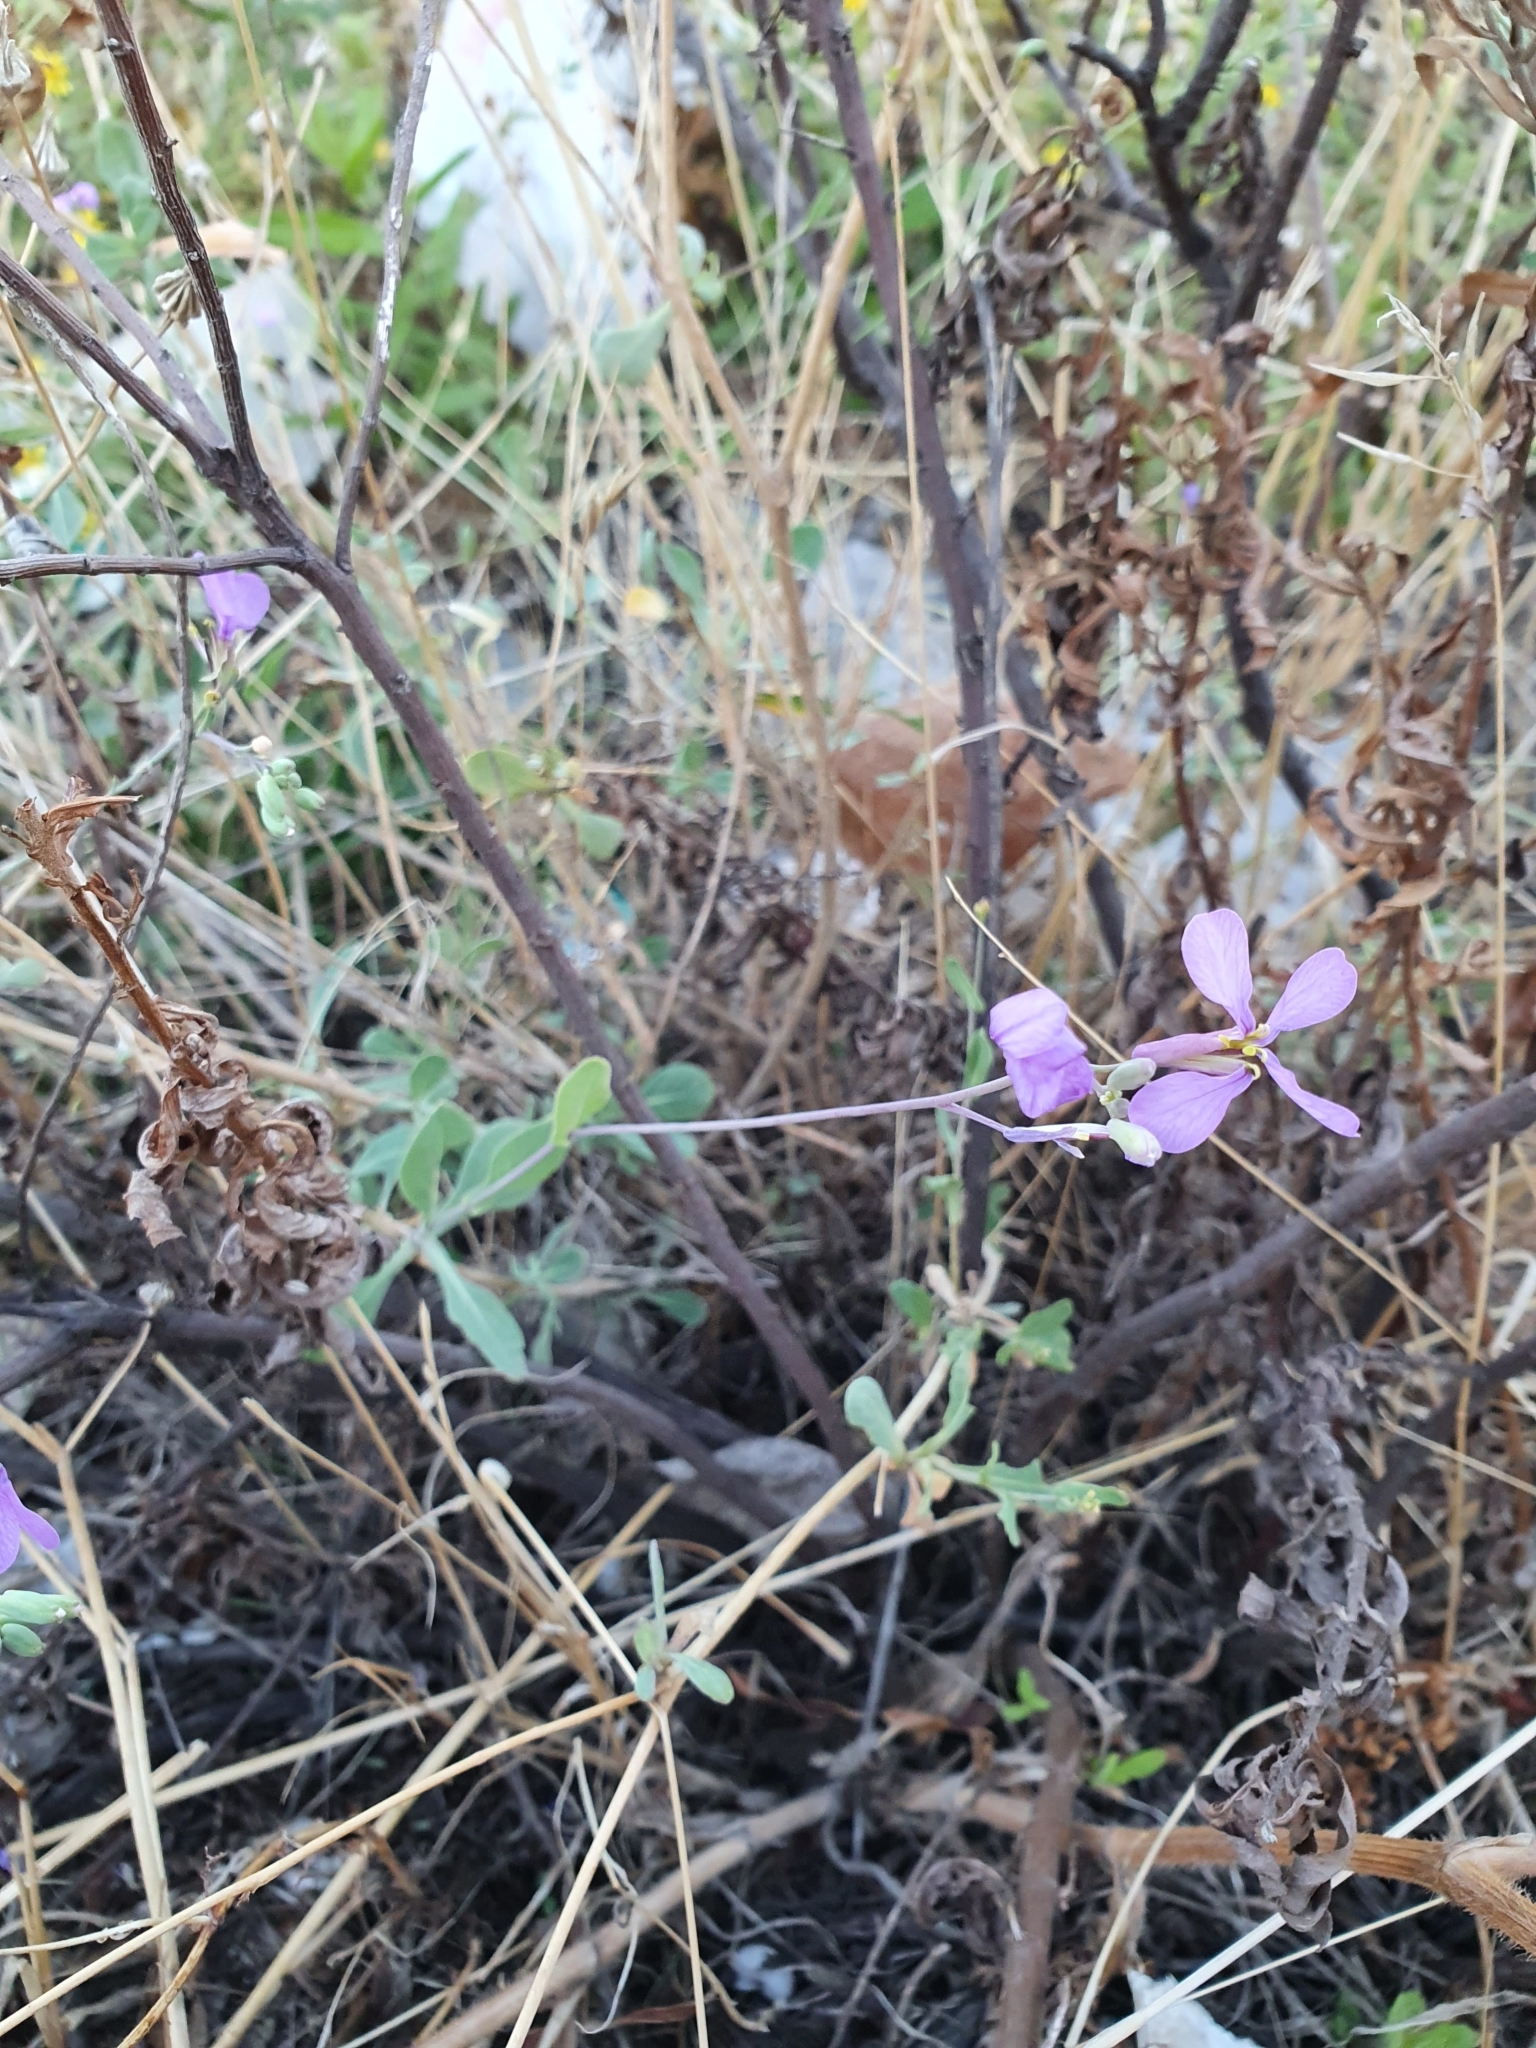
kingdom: Plantae
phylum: Tracheophyta
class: Magnoliopsida
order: Brassicales
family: Brassicaceae
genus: Moricandia
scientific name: Moricandia suffruticosa
